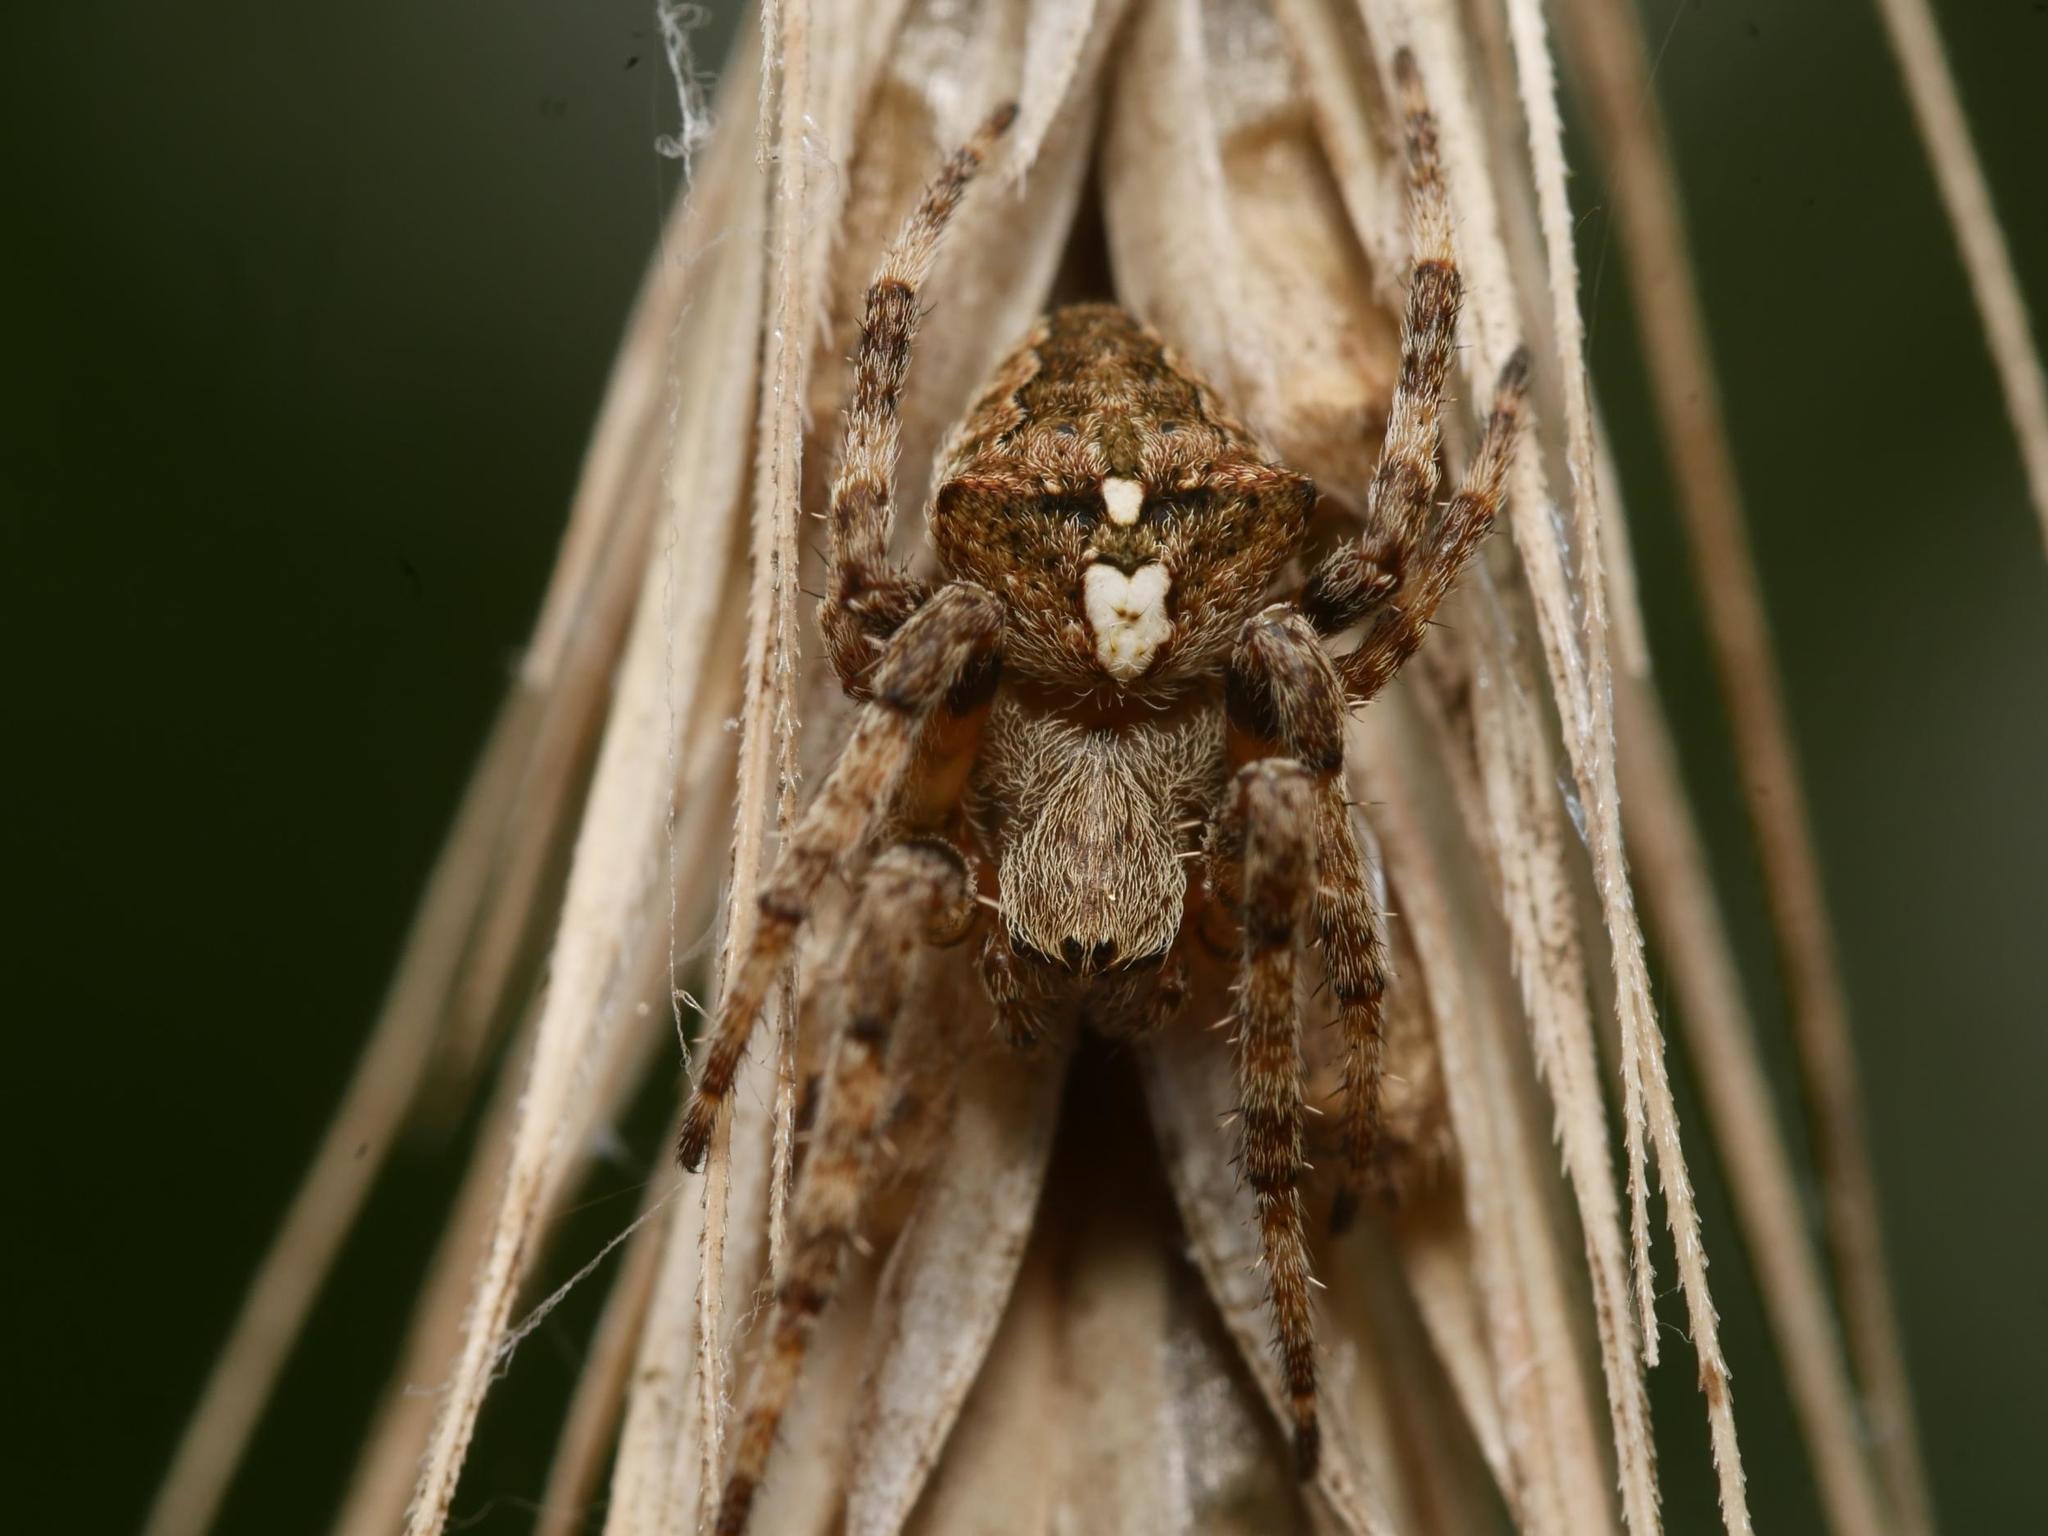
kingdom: Animalia
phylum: Arthropoda
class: Arachnida
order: Araneae
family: Araneidae
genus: Araneus
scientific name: Araneus angulatus
